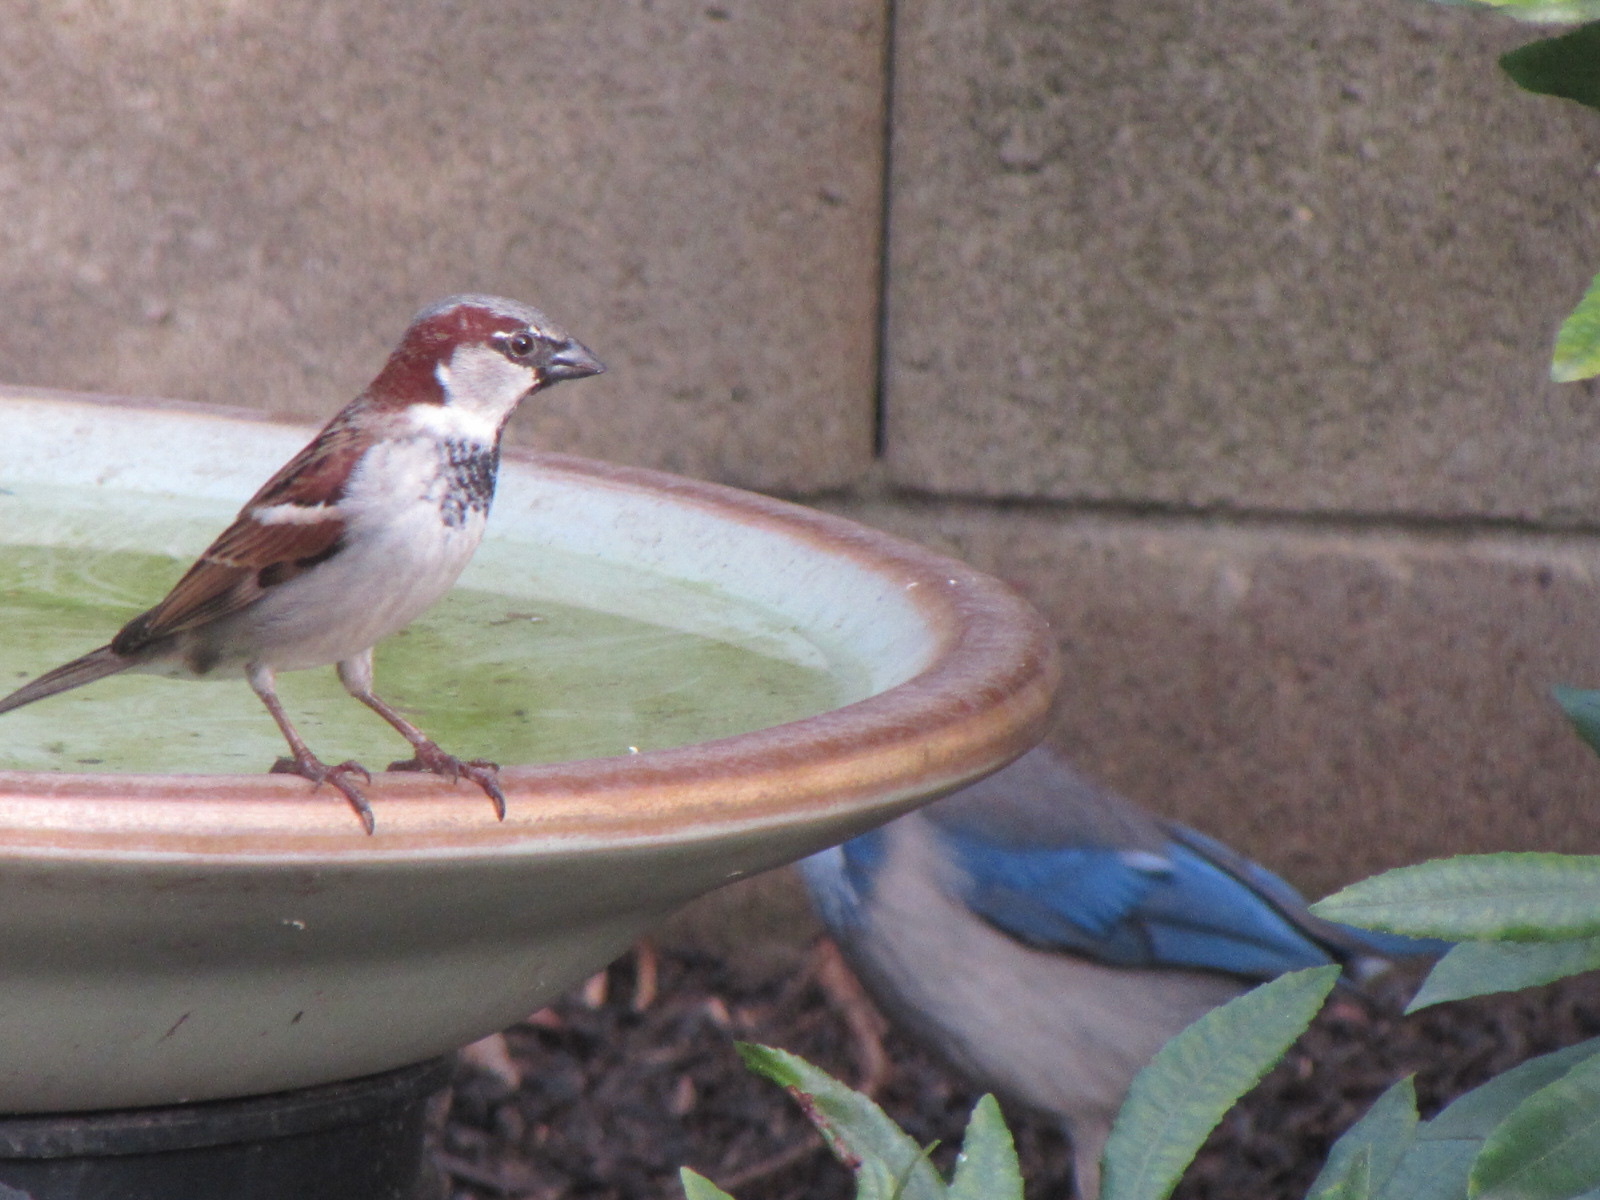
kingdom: Animalia
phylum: Chordata
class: Aves
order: Passeriformes
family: Passeridae
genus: Passer
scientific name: Passer domesticus
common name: House sparrow
